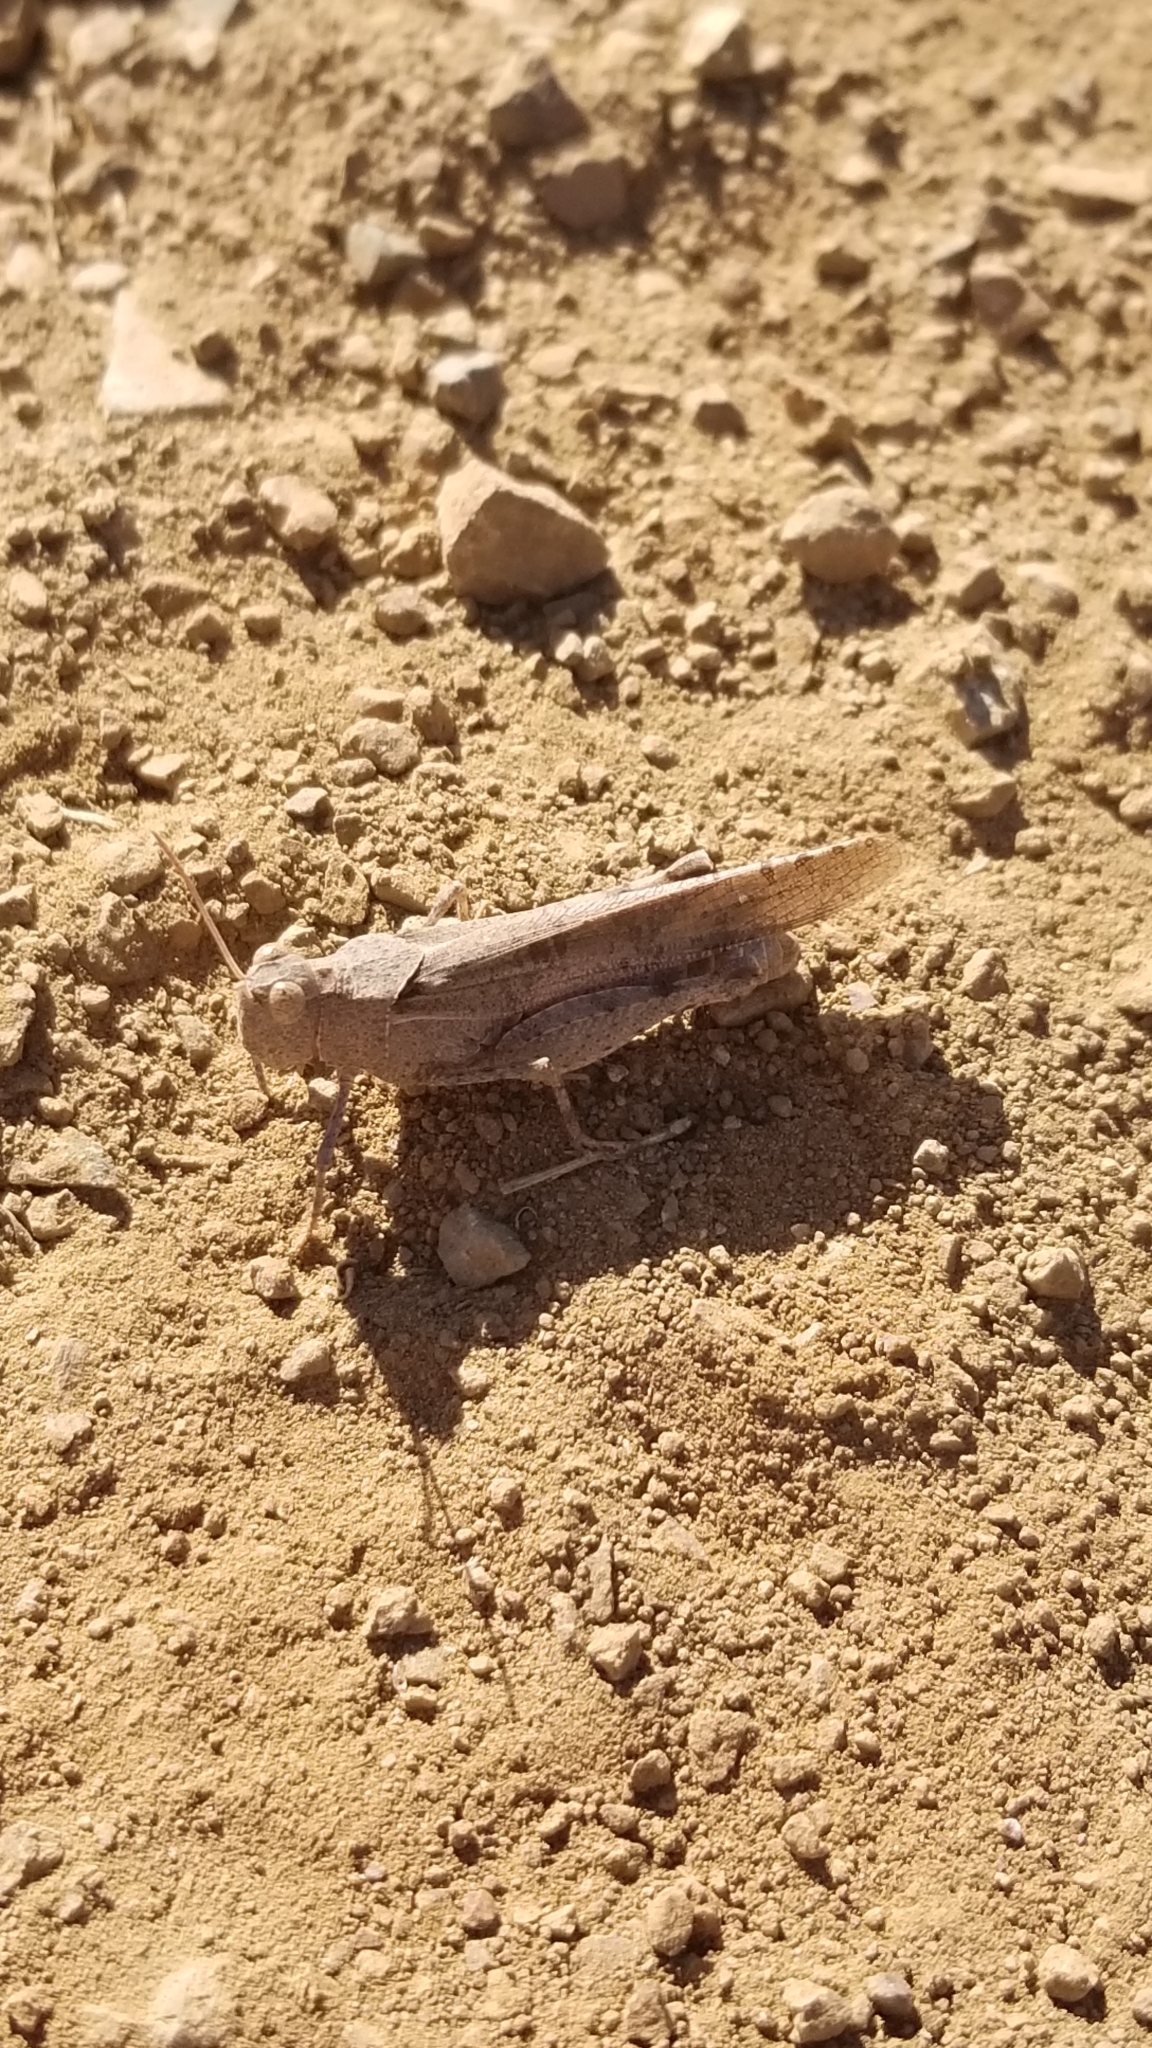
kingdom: Animalia
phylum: Arthropoda
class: Insecta
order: Orthoptera
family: Acrididae
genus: Trimerotropis
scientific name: Trimerotropis thalassica
